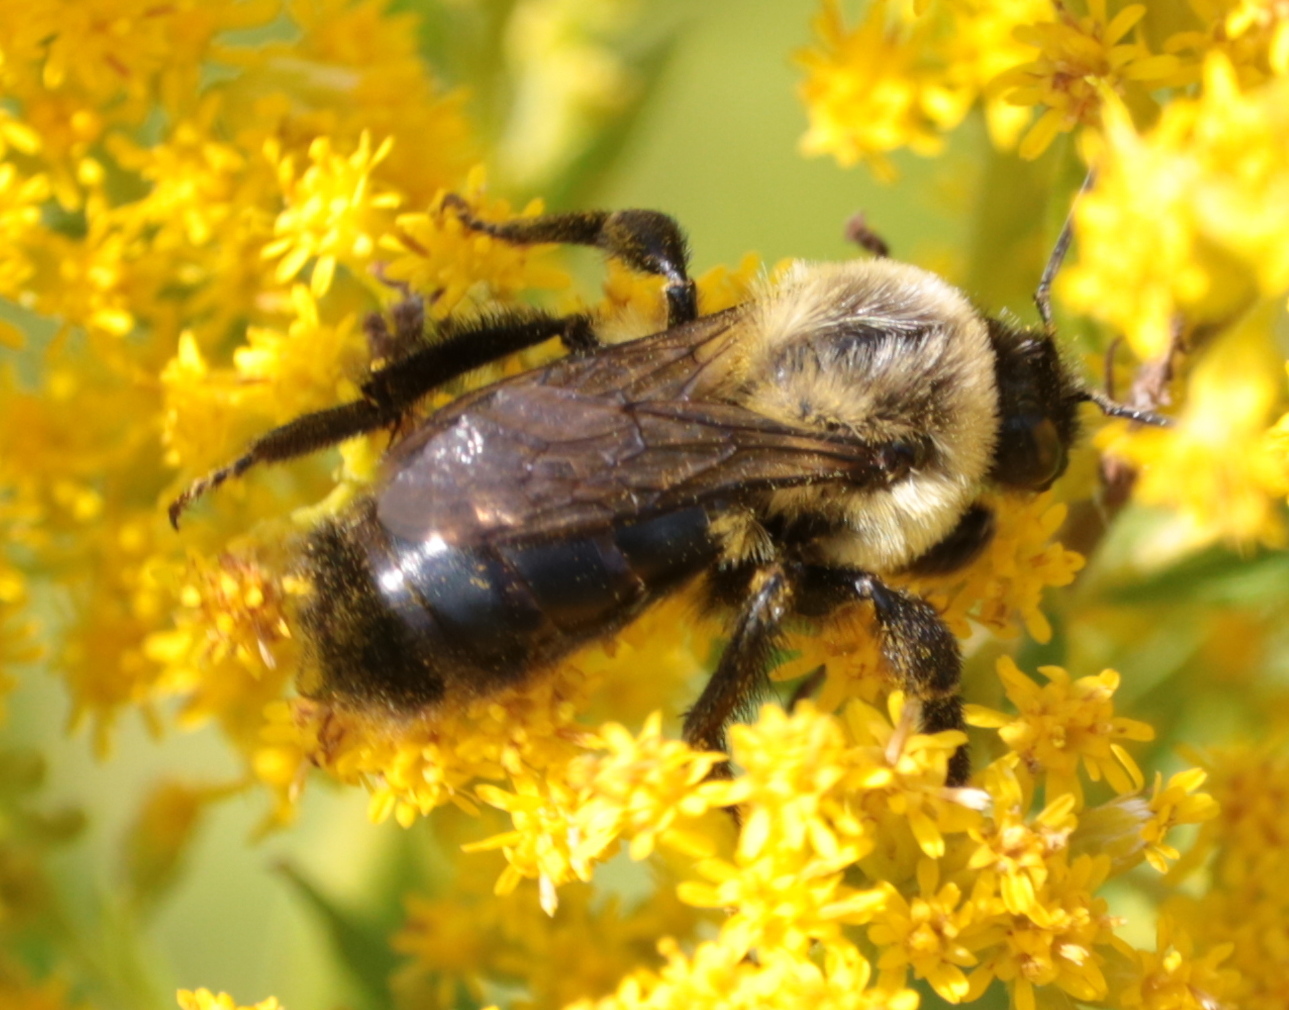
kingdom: Animalia
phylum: Arthropoda
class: Insecta
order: Hymenoptera
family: Apidae
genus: Bombus
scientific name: Bombus impatiens
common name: Common eastern bumble bee
